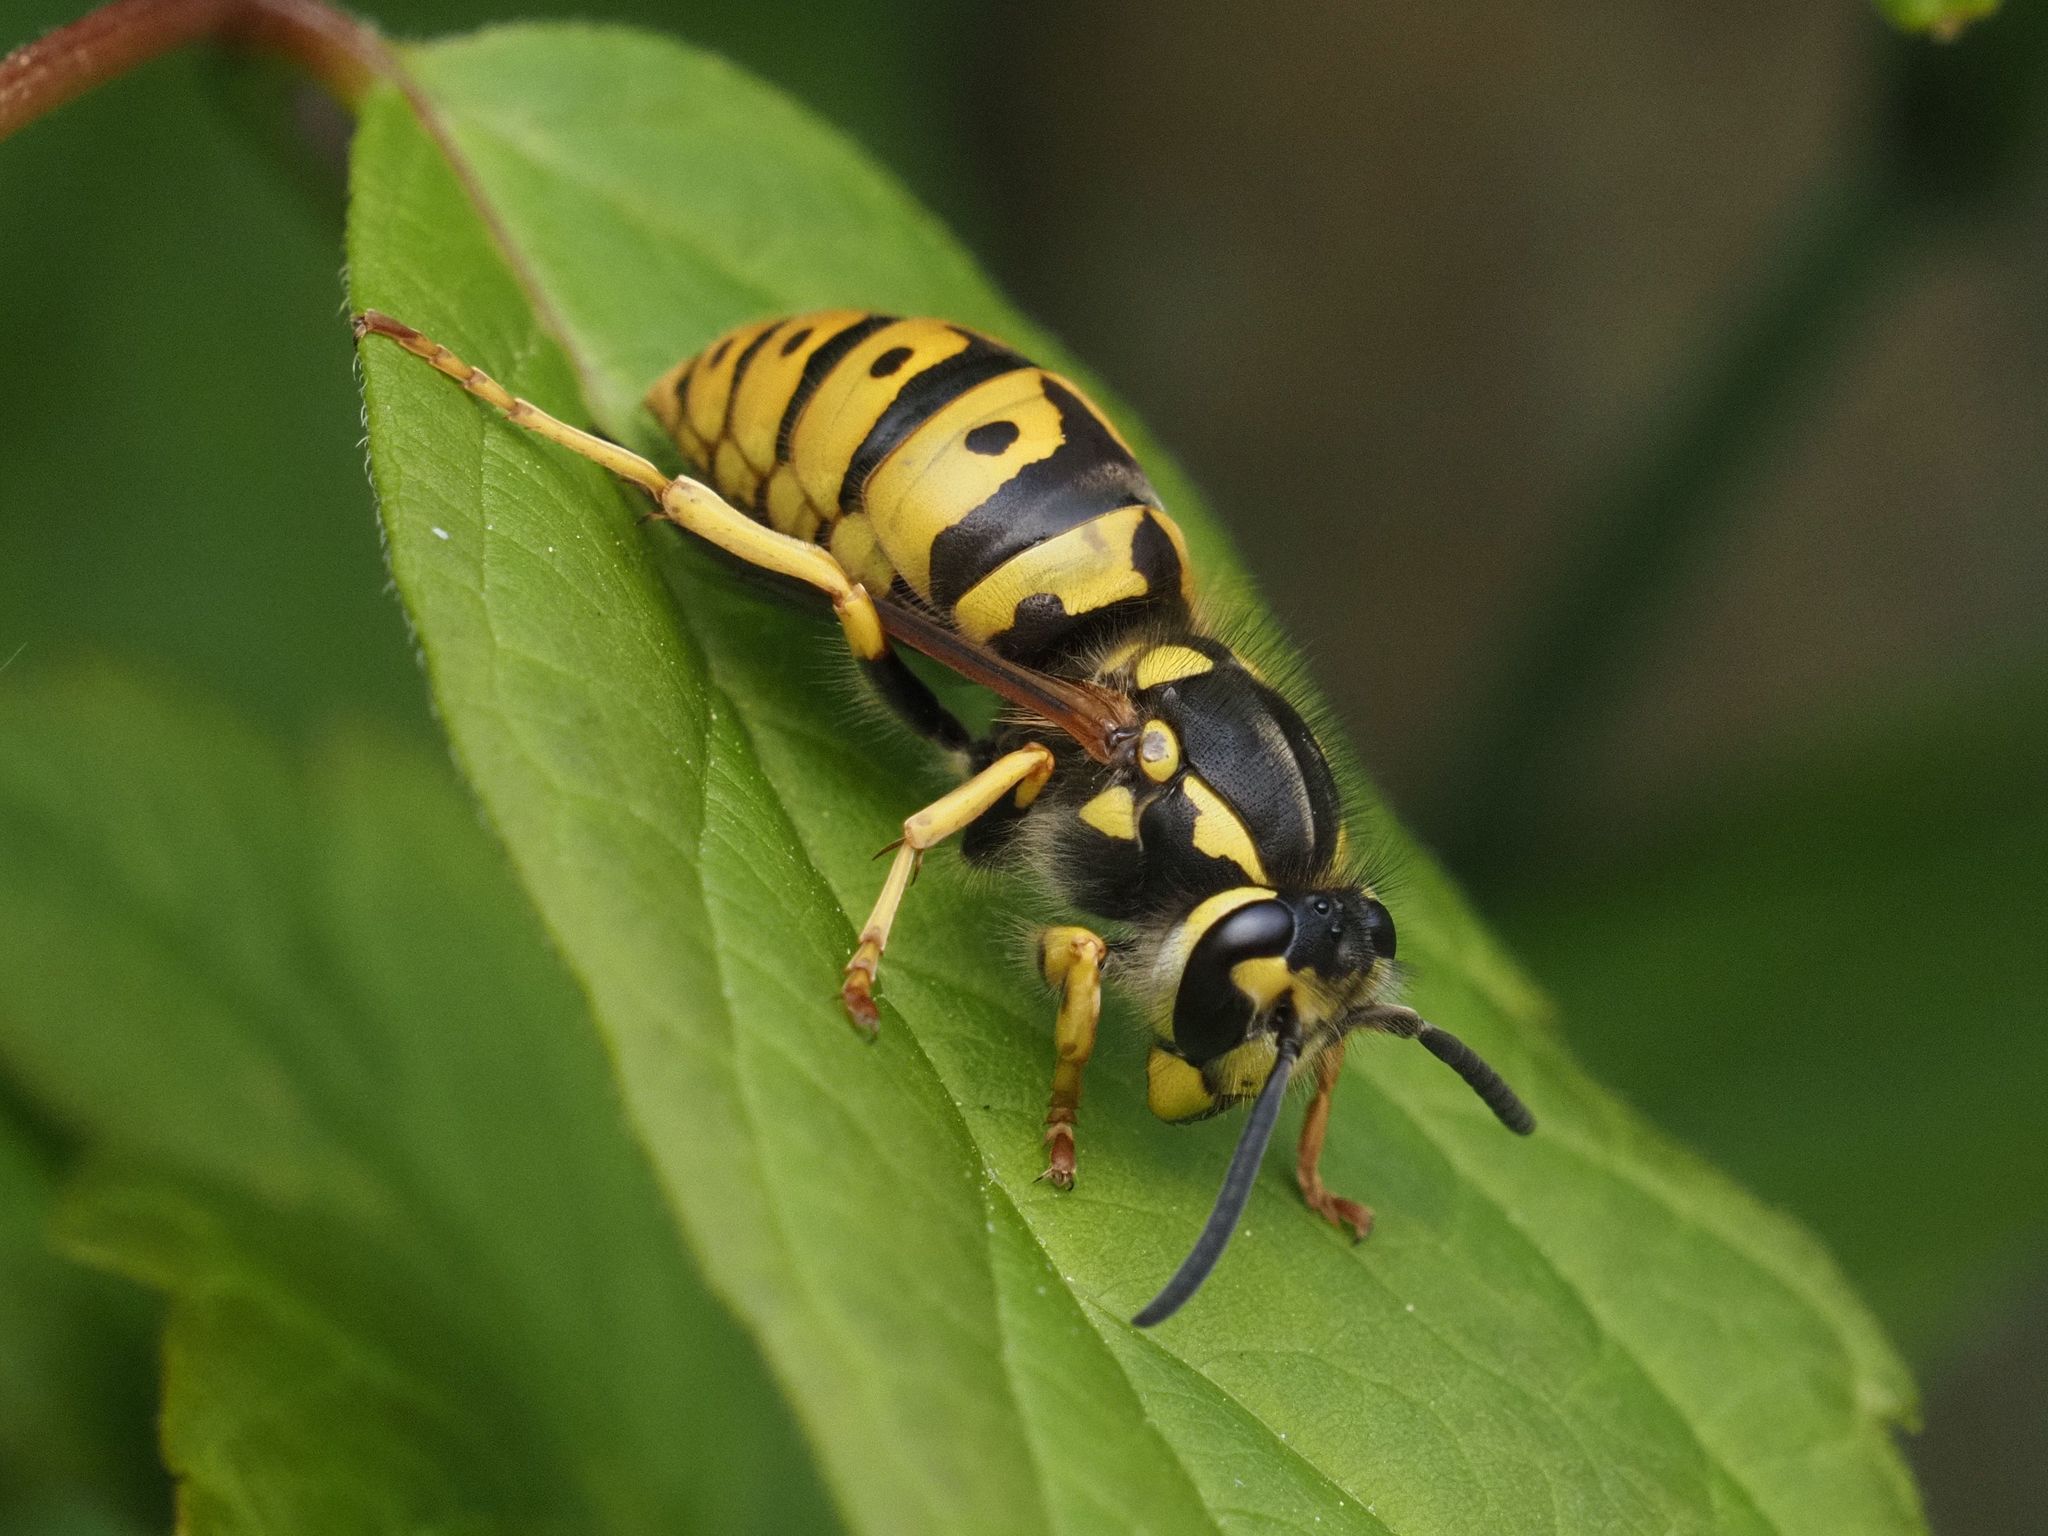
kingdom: Animalia
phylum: Arthropoda
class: Insecta
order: Hymenoptera
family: Vespidae
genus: Vespula
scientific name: Vespula germanica
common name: German wasp
